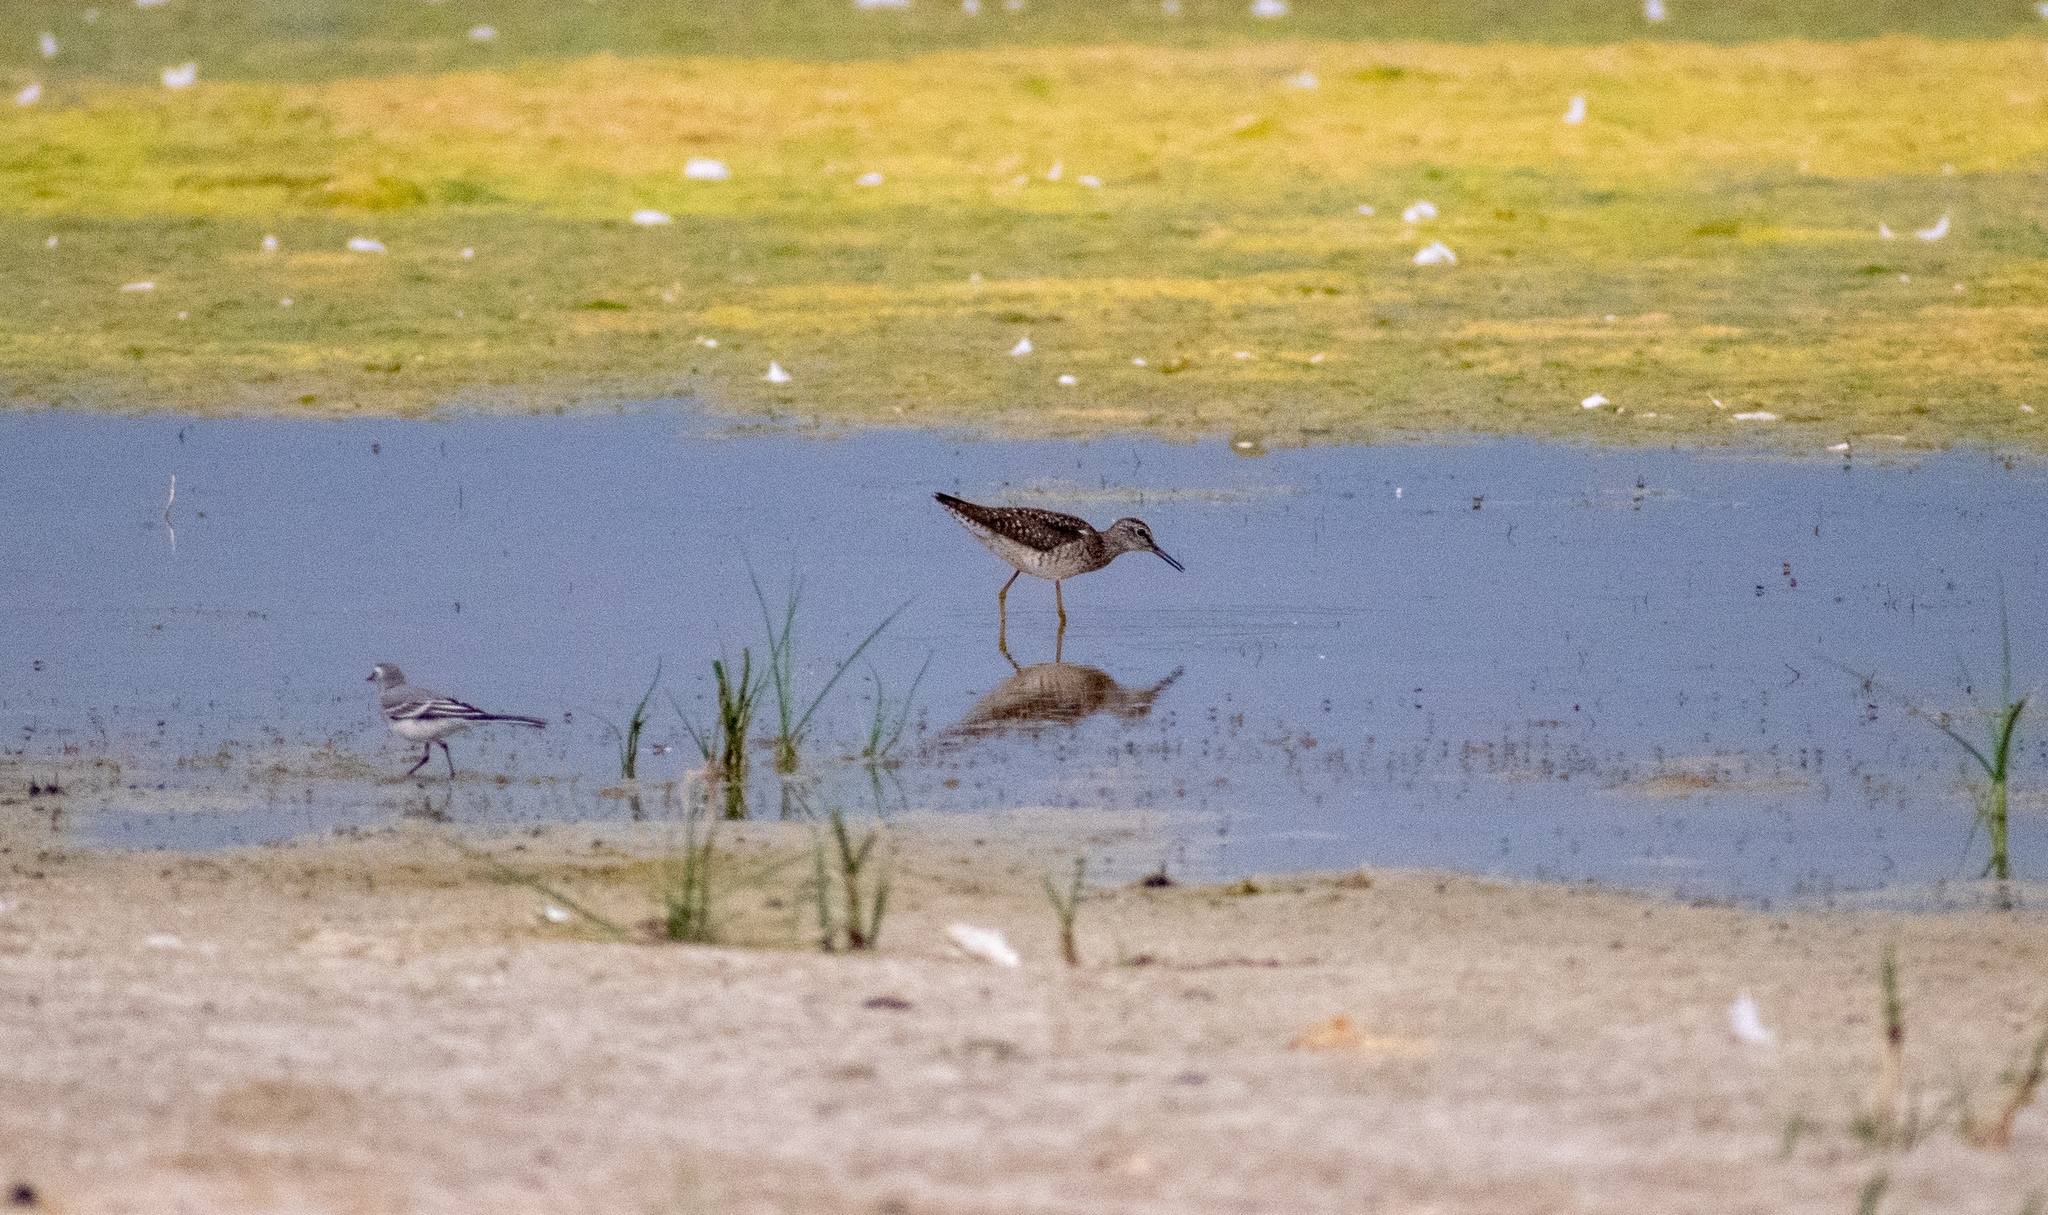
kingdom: Animalia
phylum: Chordata
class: Aves
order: Charadriiformes
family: Scolopacidae
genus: Tringa
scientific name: Tringa glareola
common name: Wood sandpiper
